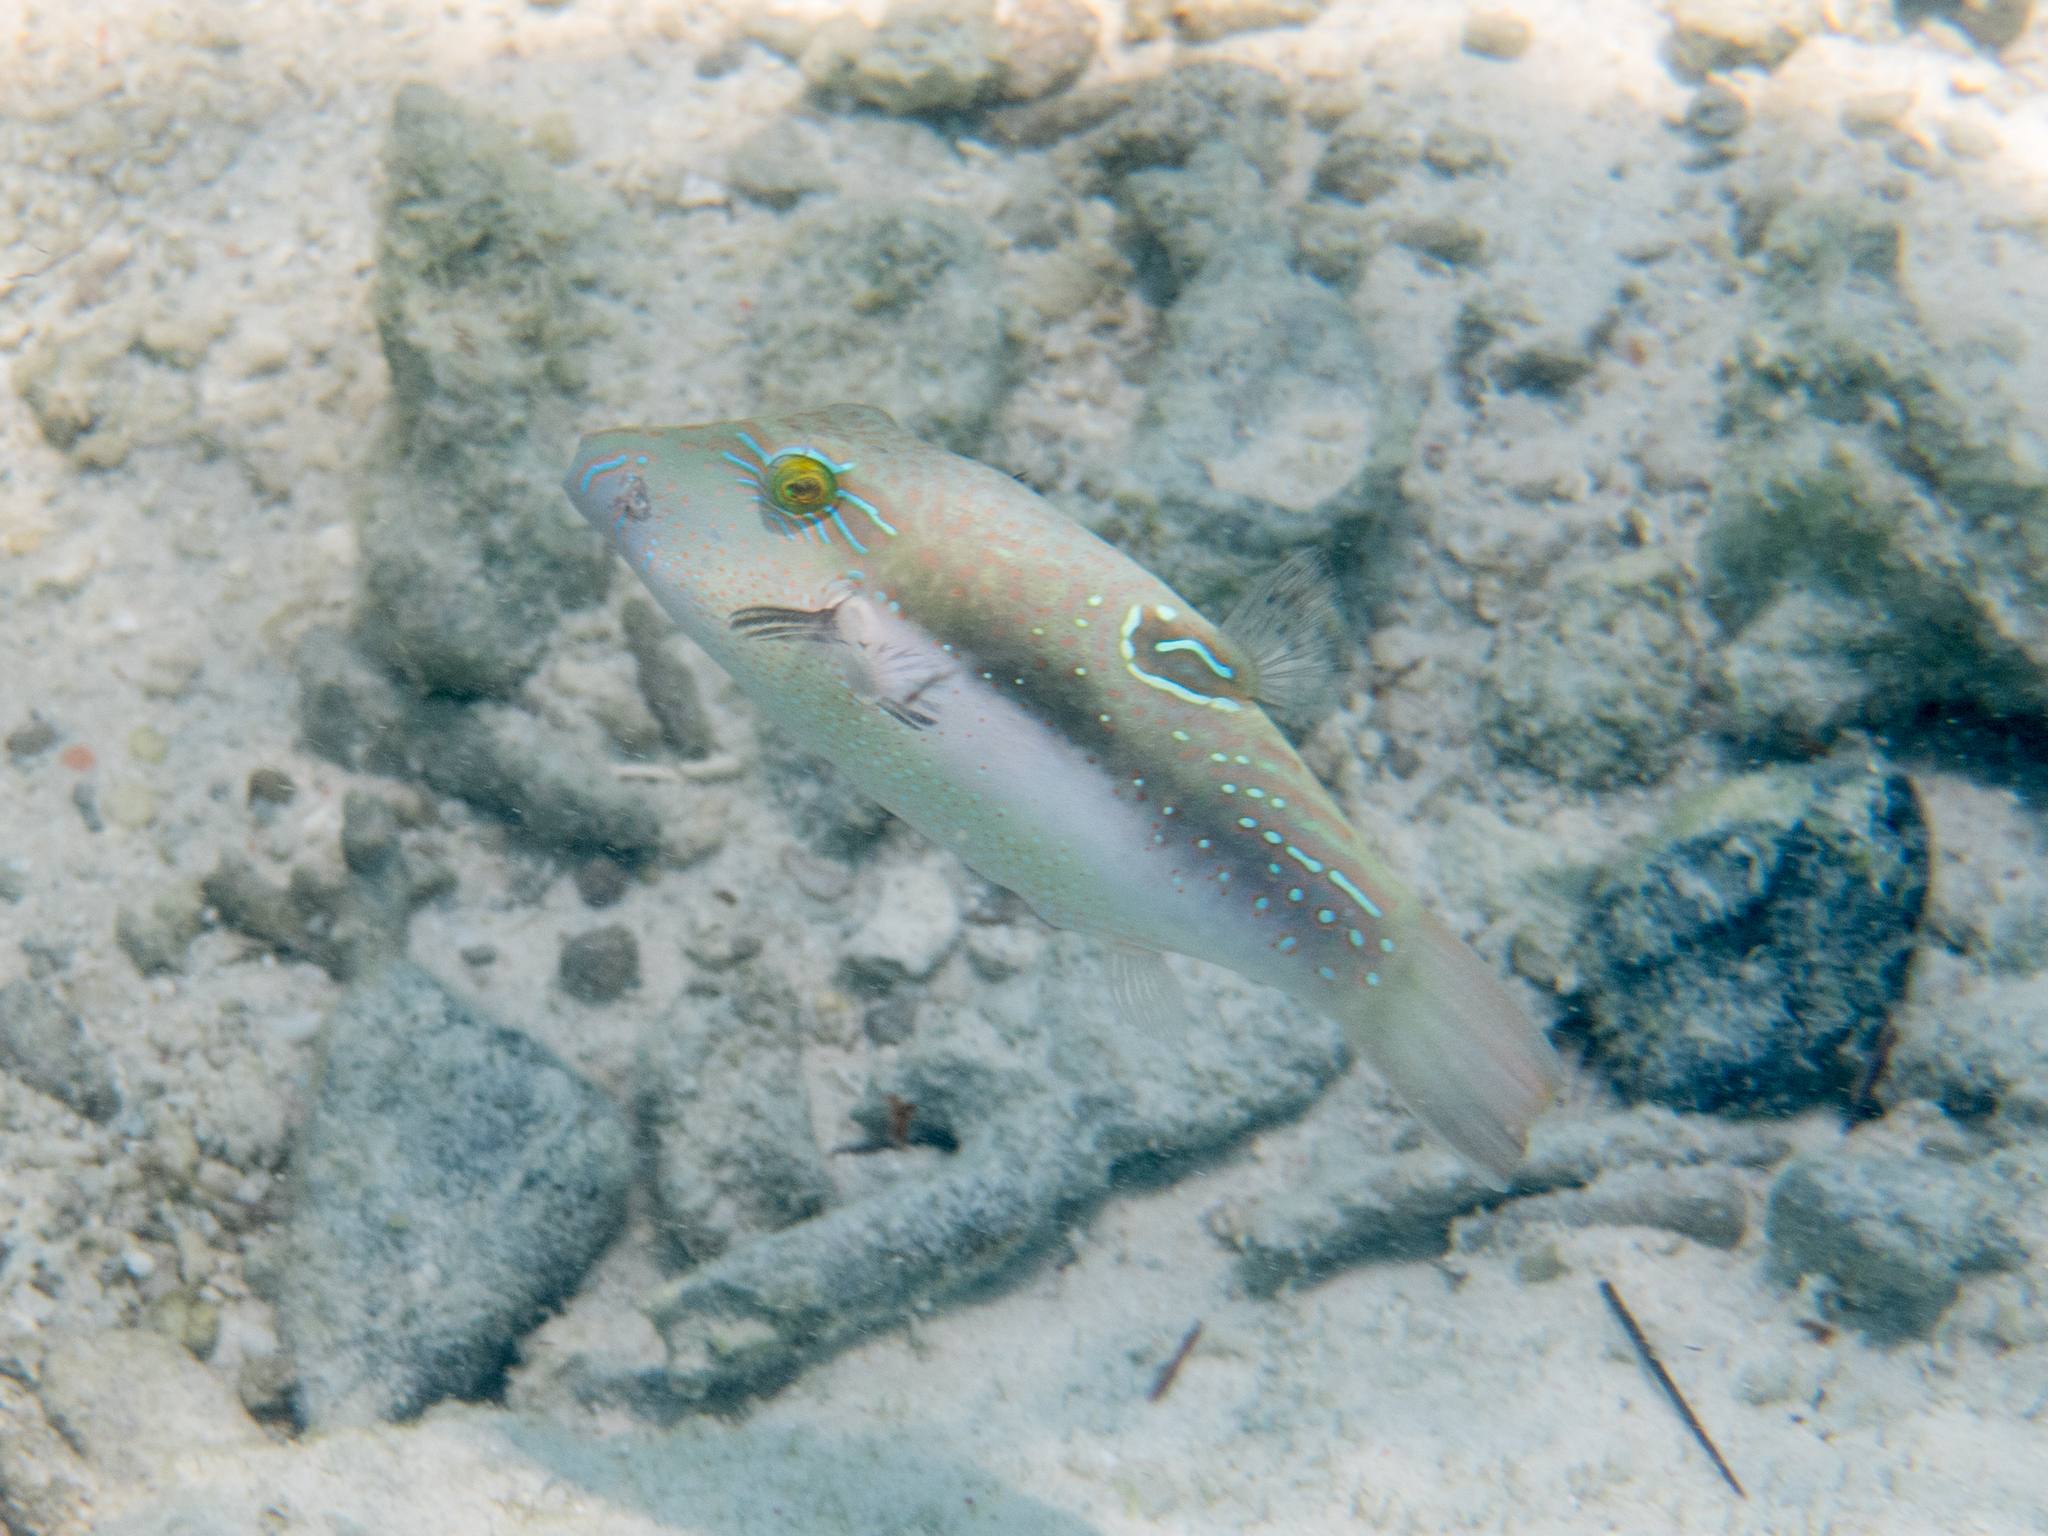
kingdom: Animalia
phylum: Chordata
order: Tetraodontiformes
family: Tetraodontidae
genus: Canthigaster
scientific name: Canthigaster bennetti
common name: Bennett's pufferfish
